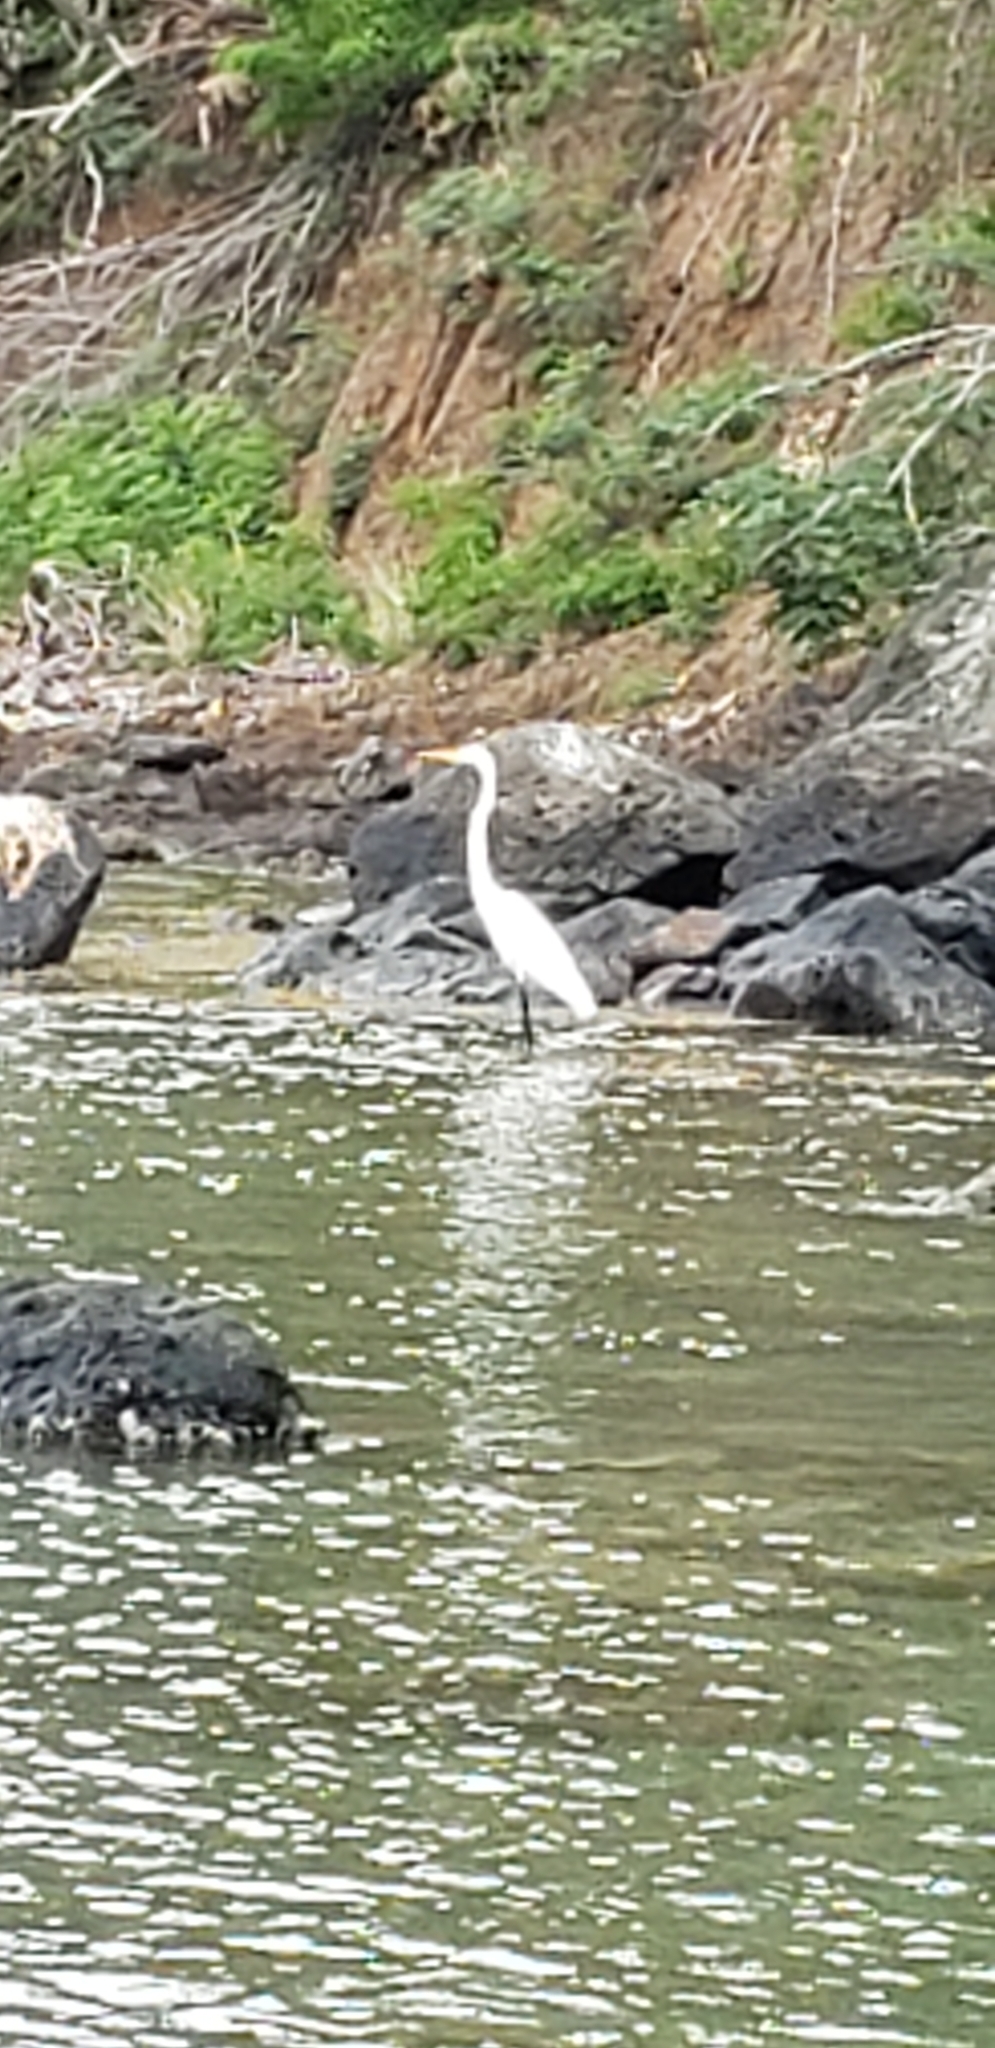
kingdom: Animalia
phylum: Chordata
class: Aves
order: Pelecaniformes
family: Ardeidae
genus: Ardea
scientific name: Ardea alba
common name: Great egret
